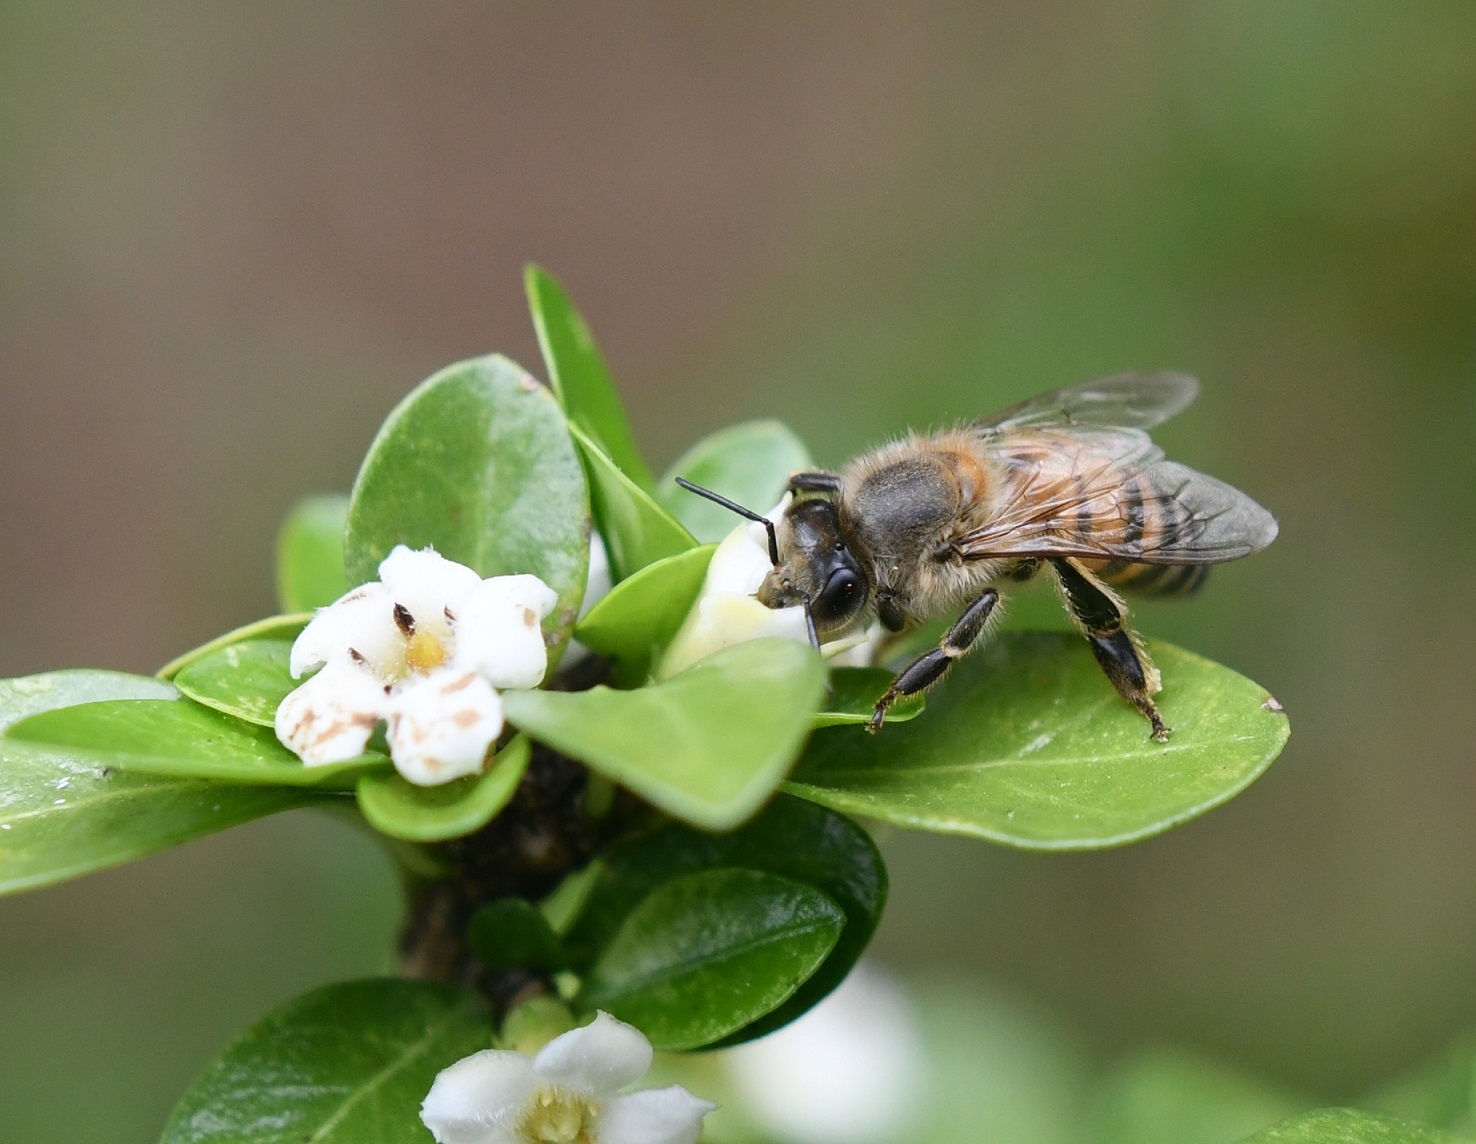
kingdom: Animalia
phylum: Arthropoda
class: Insecta
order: Hymenoptera
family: Apidae
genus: Apis
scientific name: Apis mellifera
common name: Honey bee
